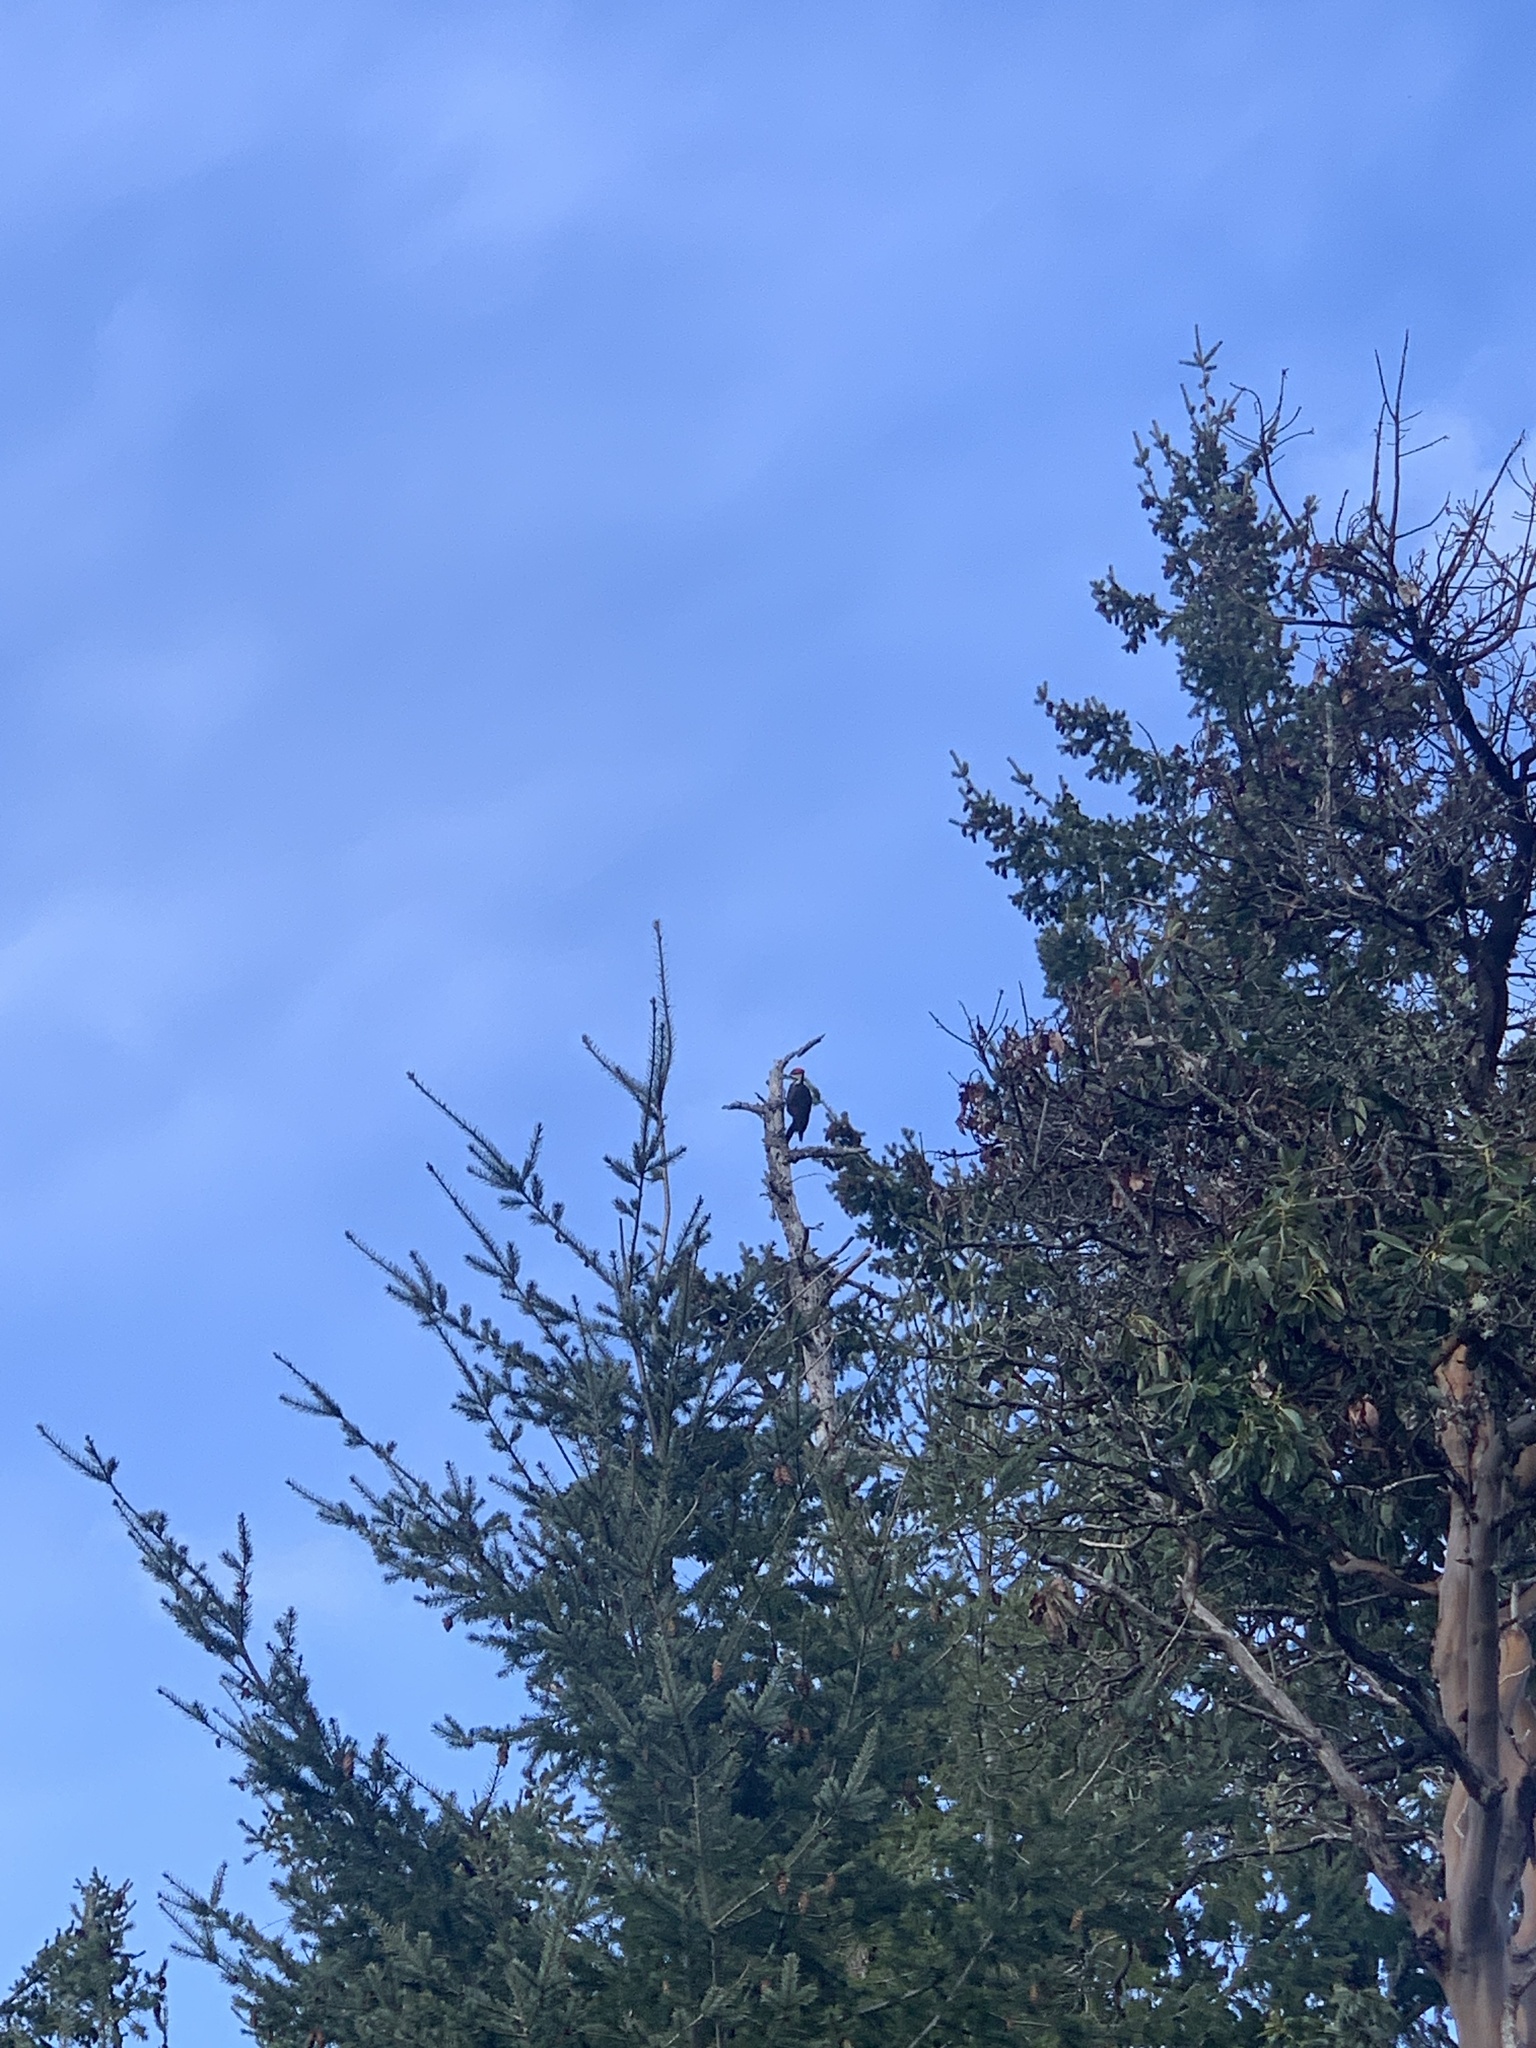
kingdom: Animalia
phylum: Chordata
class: Aves
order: Piciformes
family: Picidae
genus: Dryocopus
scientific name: Dryocopus pileatus
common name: Pileated woodpecker
